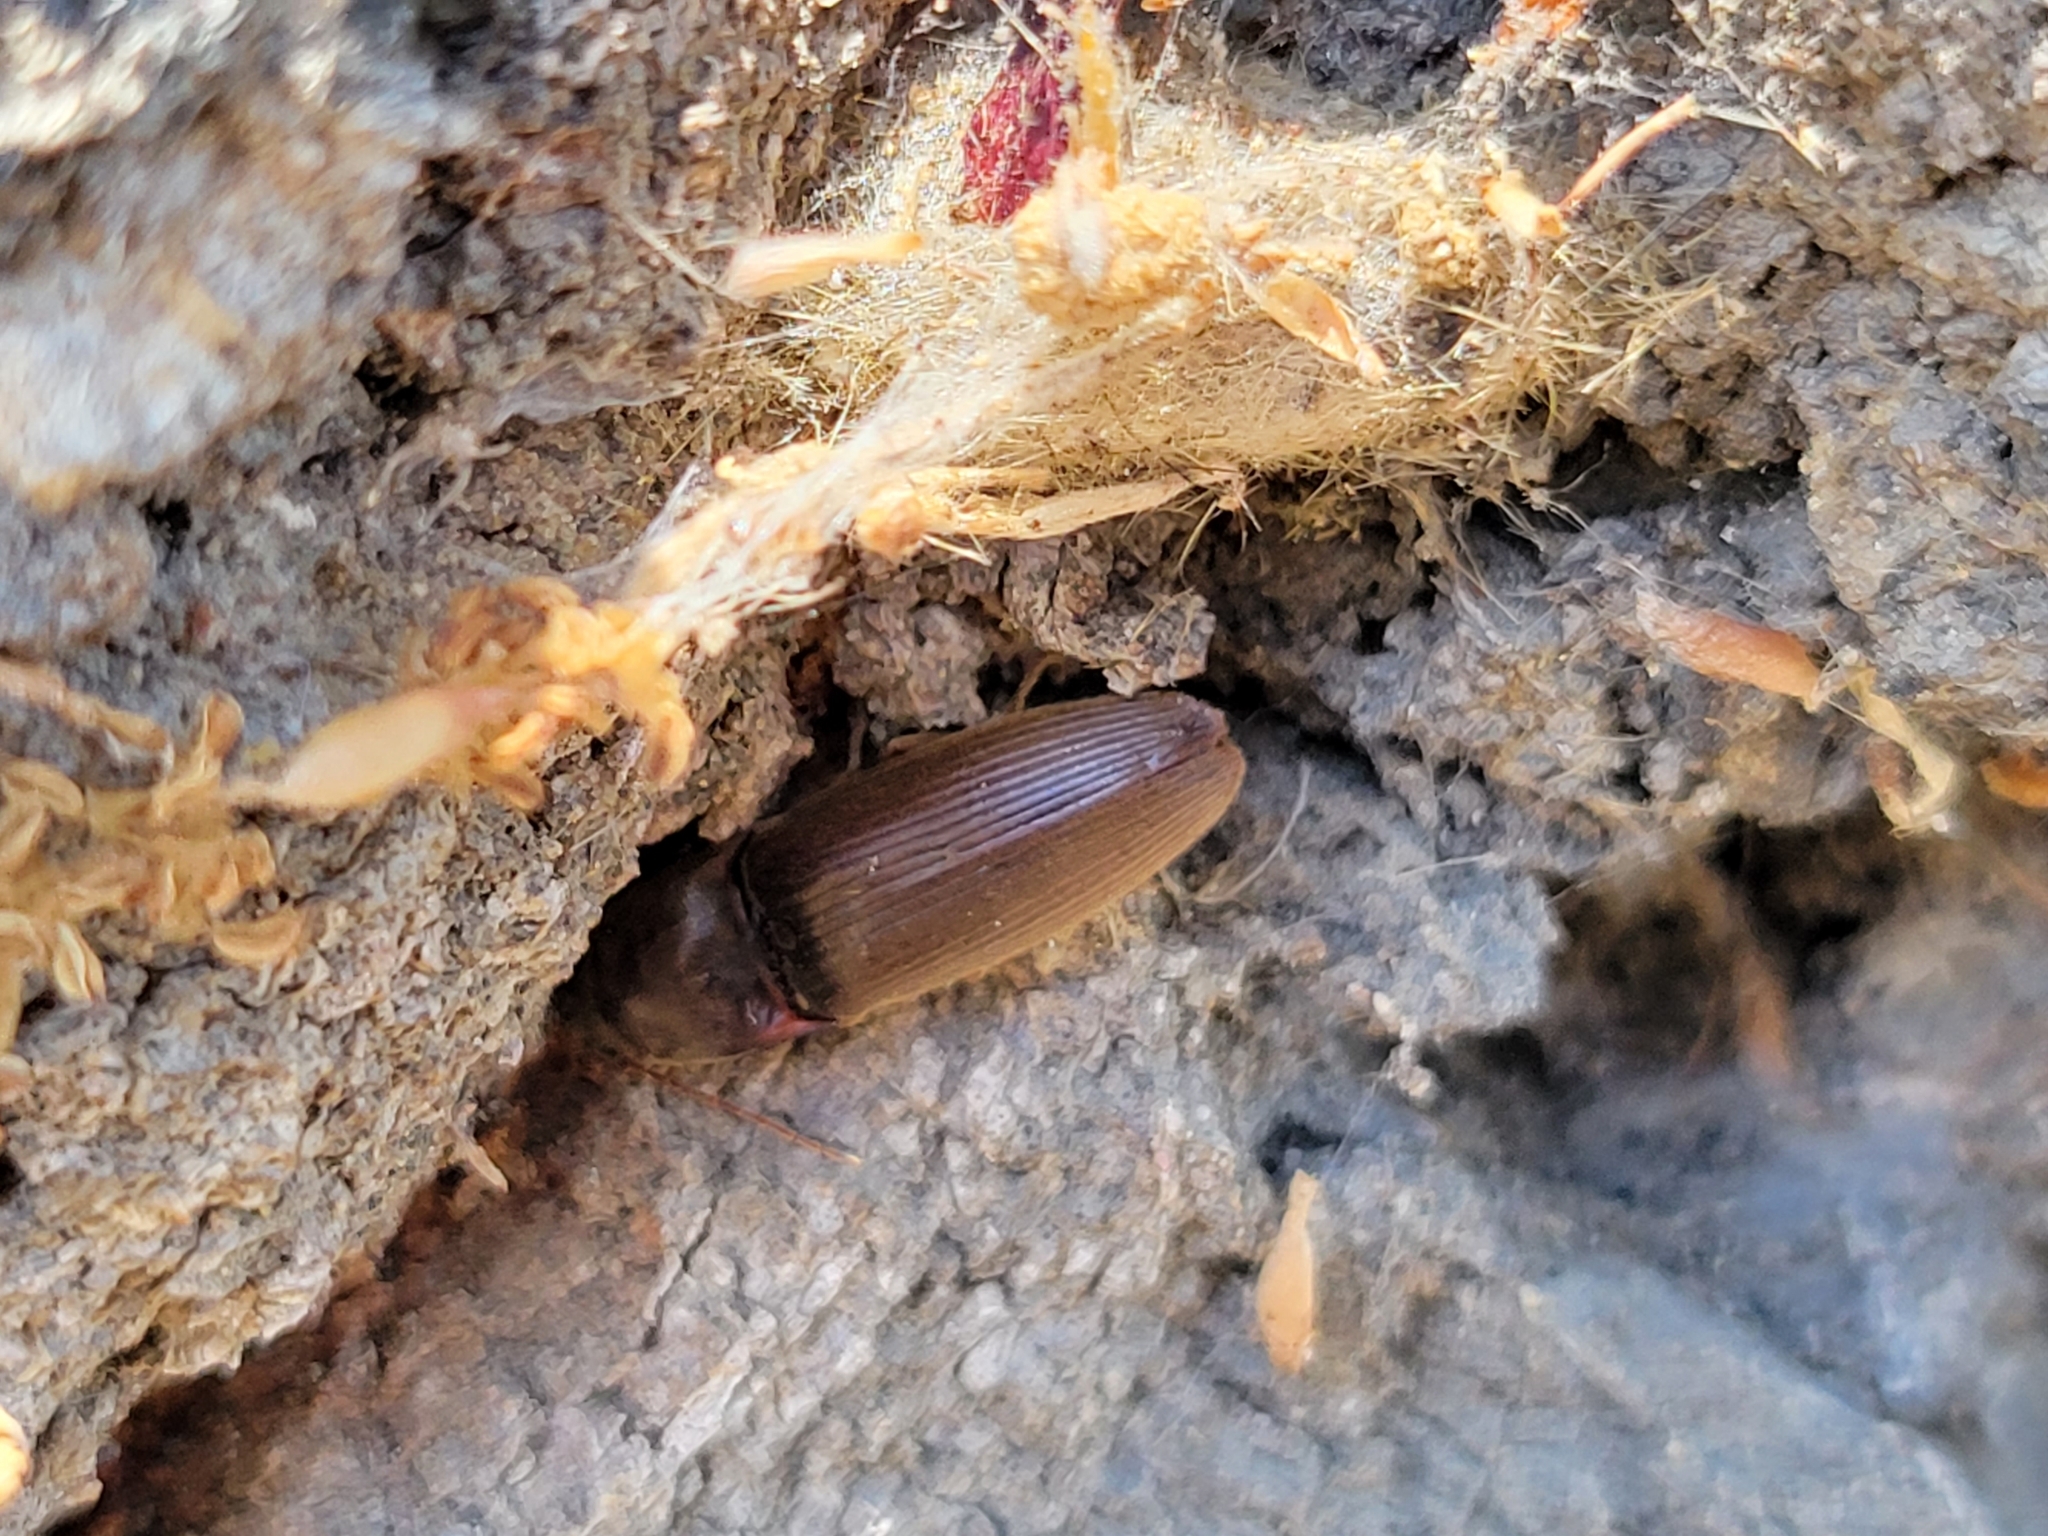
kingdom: Animalia
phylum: Arthropoda
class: Insecta
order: Coleoptera
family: Elateridae
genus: Conoderus
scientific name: Conoderus exsul
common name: Click beetle
